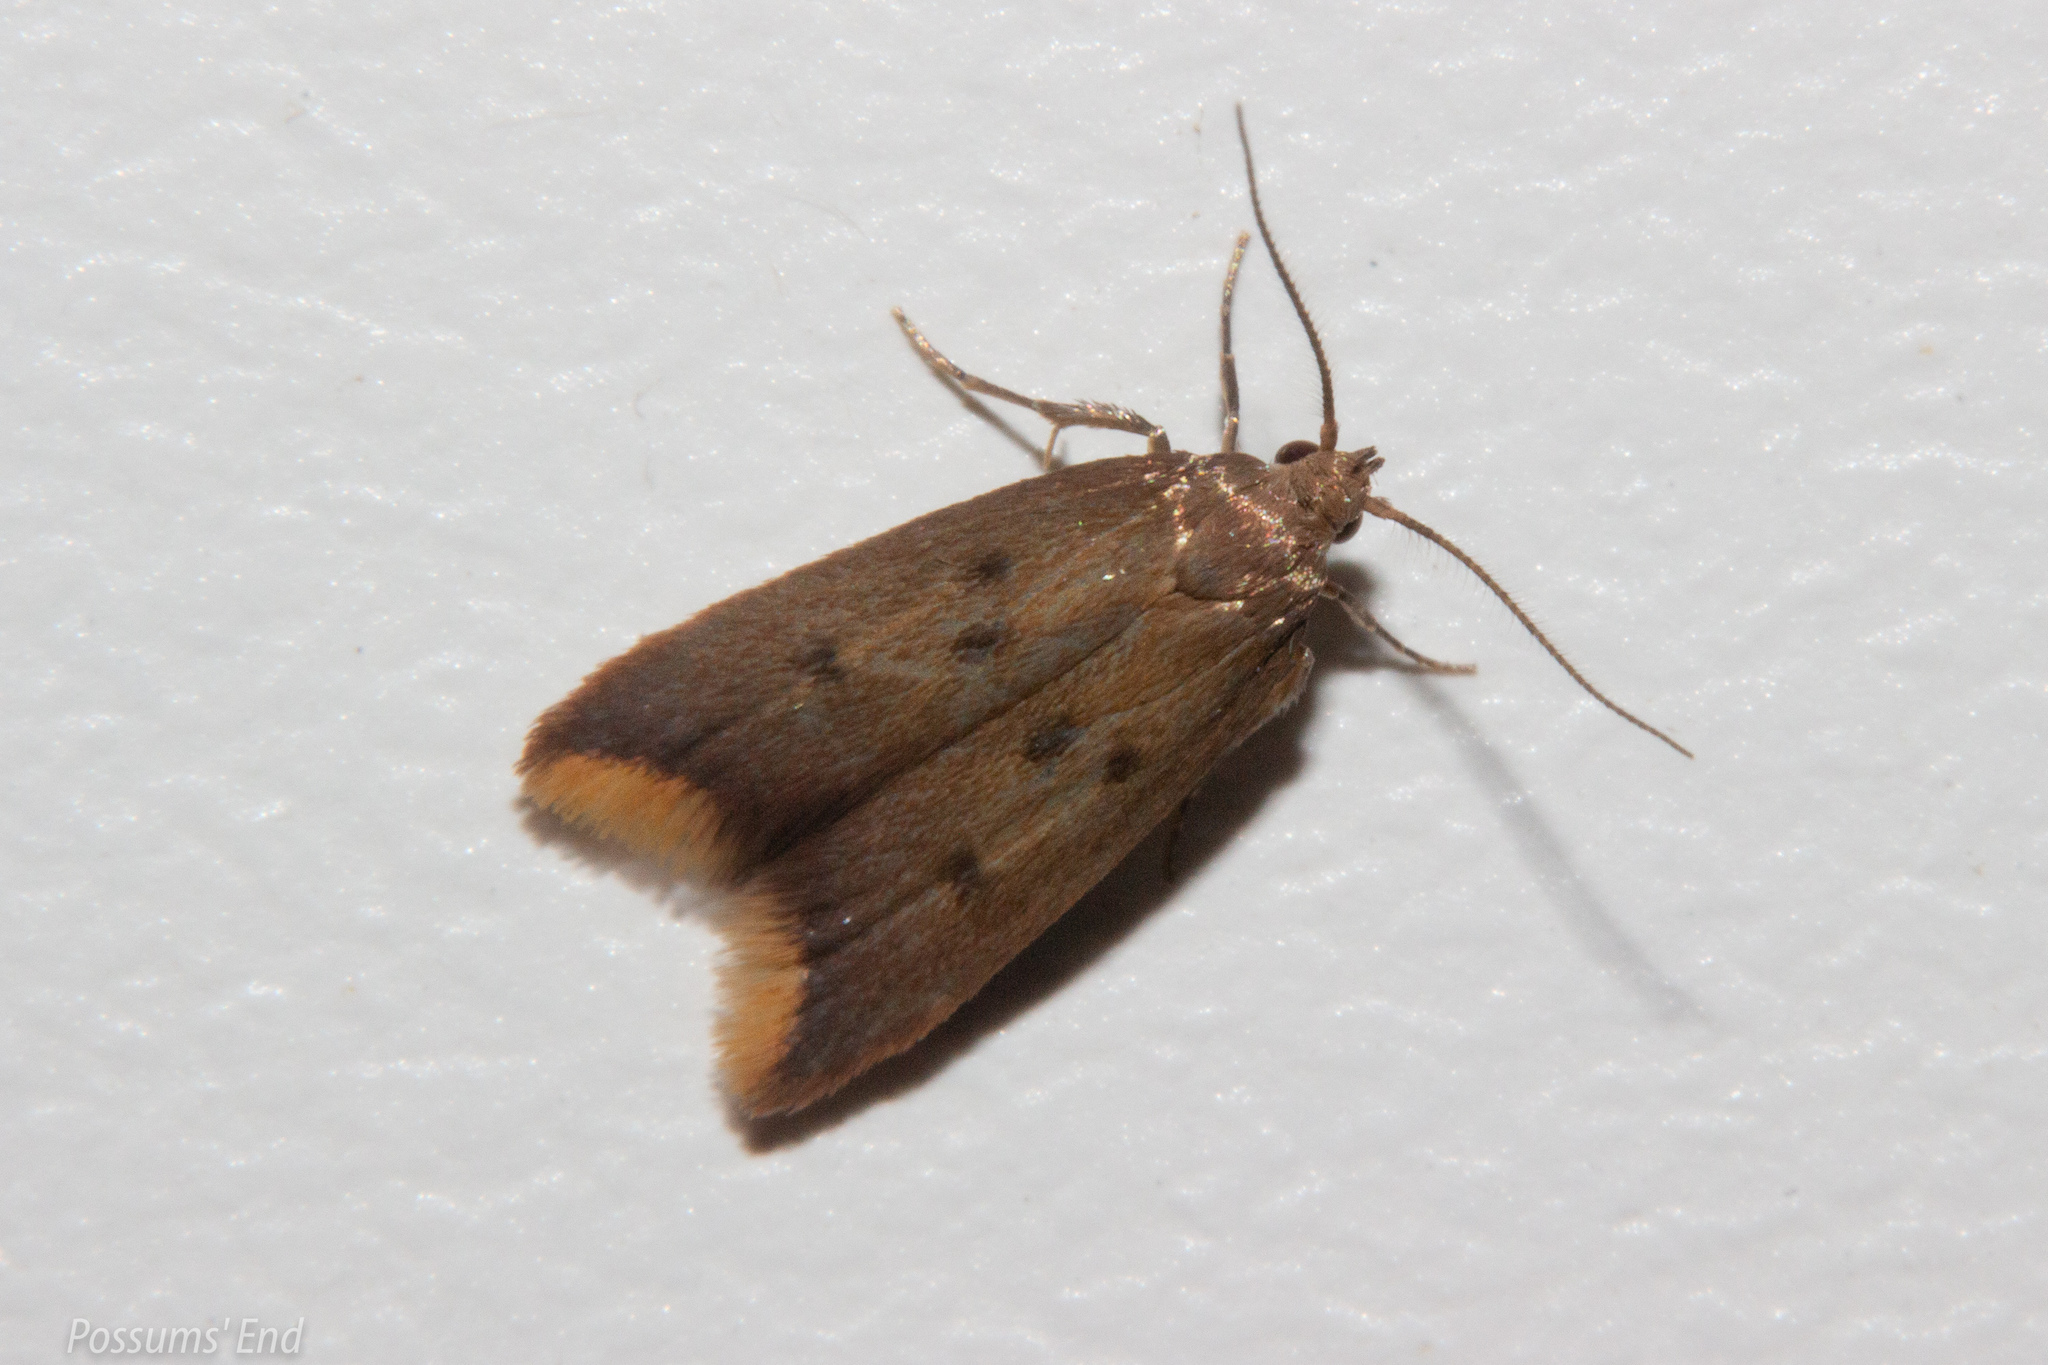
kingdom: Animalia
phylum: Arthropoda
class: Insecta
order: Lepidoptera
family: Oecophoridae
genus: Tachystola
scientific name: Tachystola acroxantha
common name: Ruddy streak
